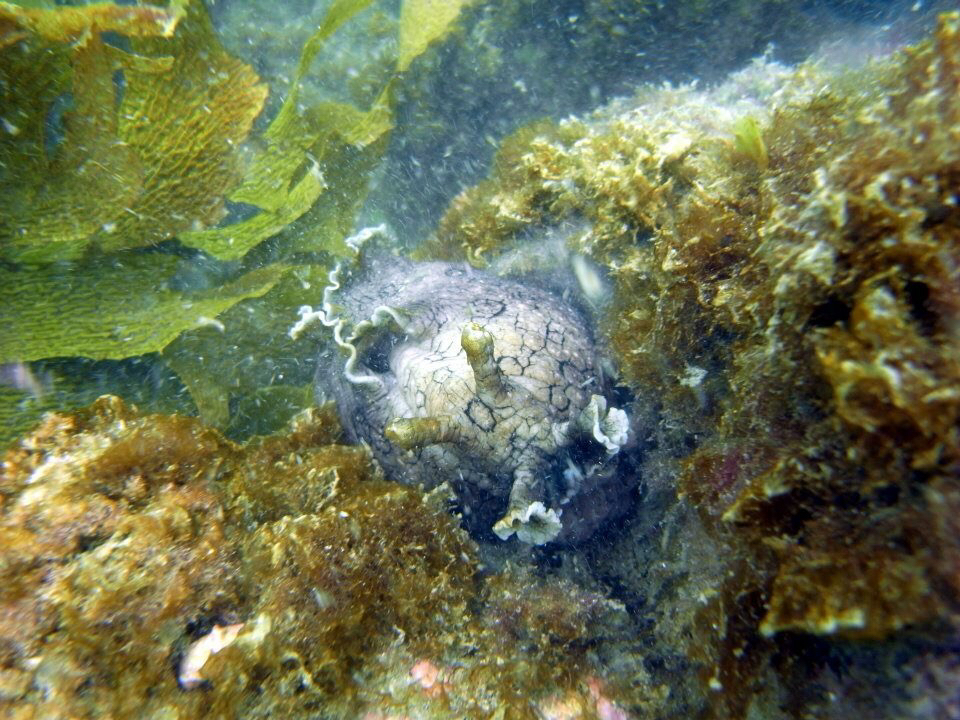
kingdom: Animalia
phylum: Mollusca
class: Gastropoda
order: Aplysiida
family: Aplysiidae
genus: Aplysia
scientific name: Aplysia argus
